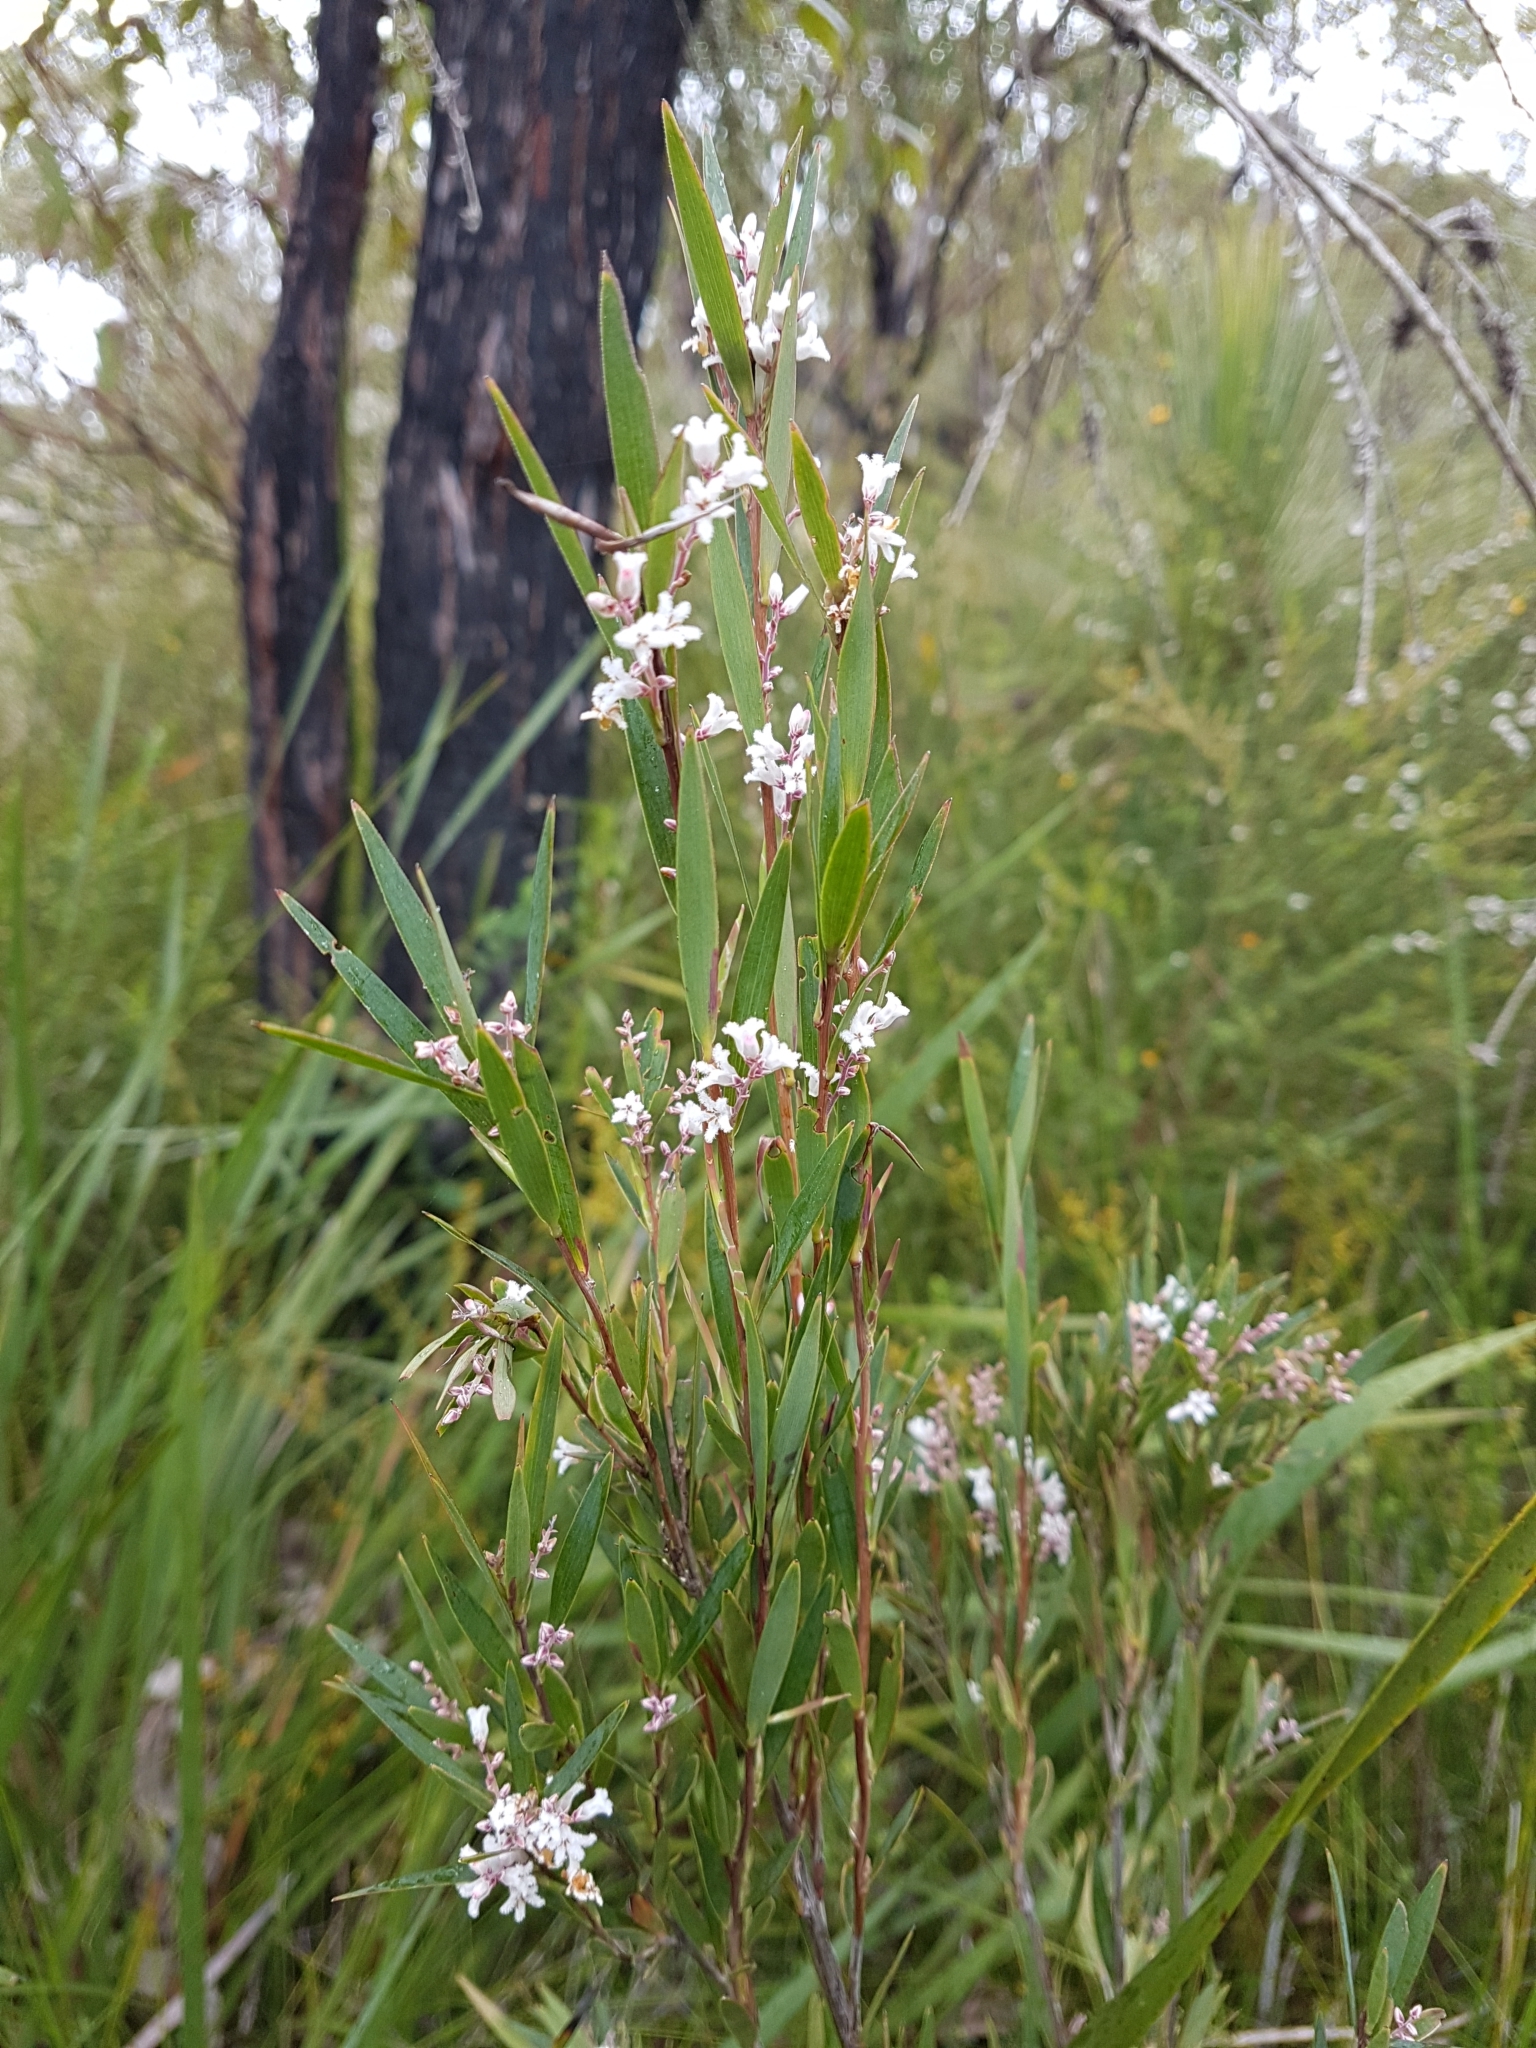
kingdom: Plantae
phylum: Tracheophyta
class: Magnoliopsida
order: Ericales
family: Ericaceae
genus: Leucopogon
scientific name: Leucopogon australis
